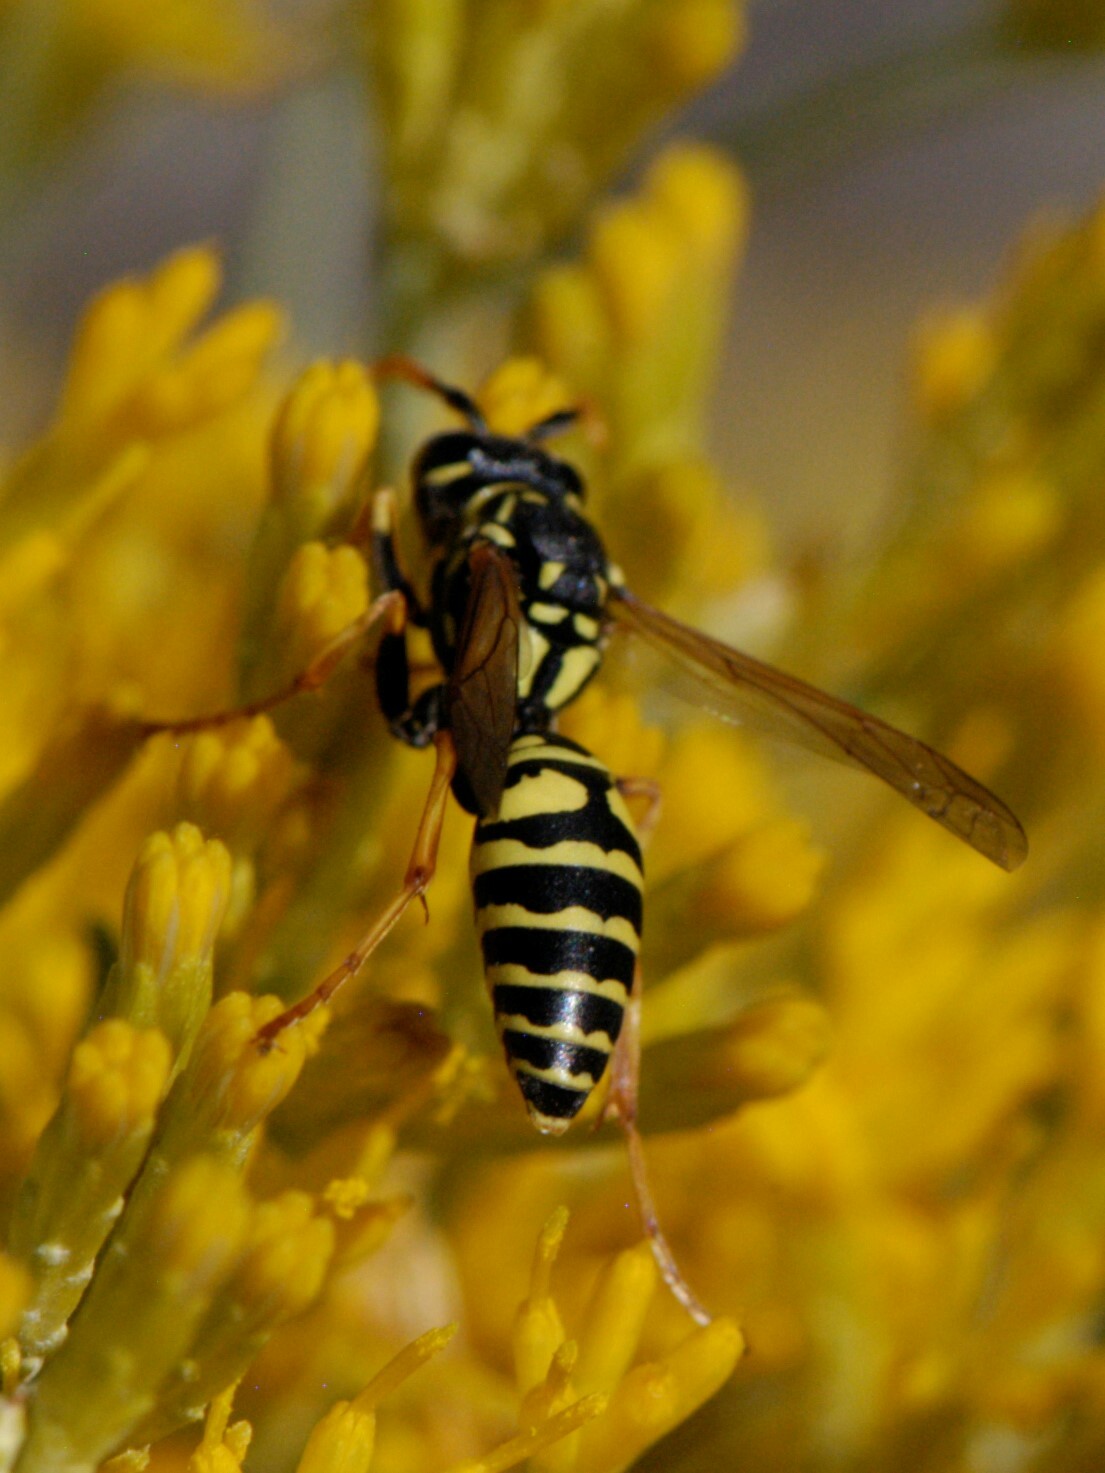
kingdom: Animalia
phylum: Arthropoda
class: Insecta
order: Hymenoptera
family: Eumenidae
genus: Polistes
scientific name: Polistes dominula
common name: Paper wasp
